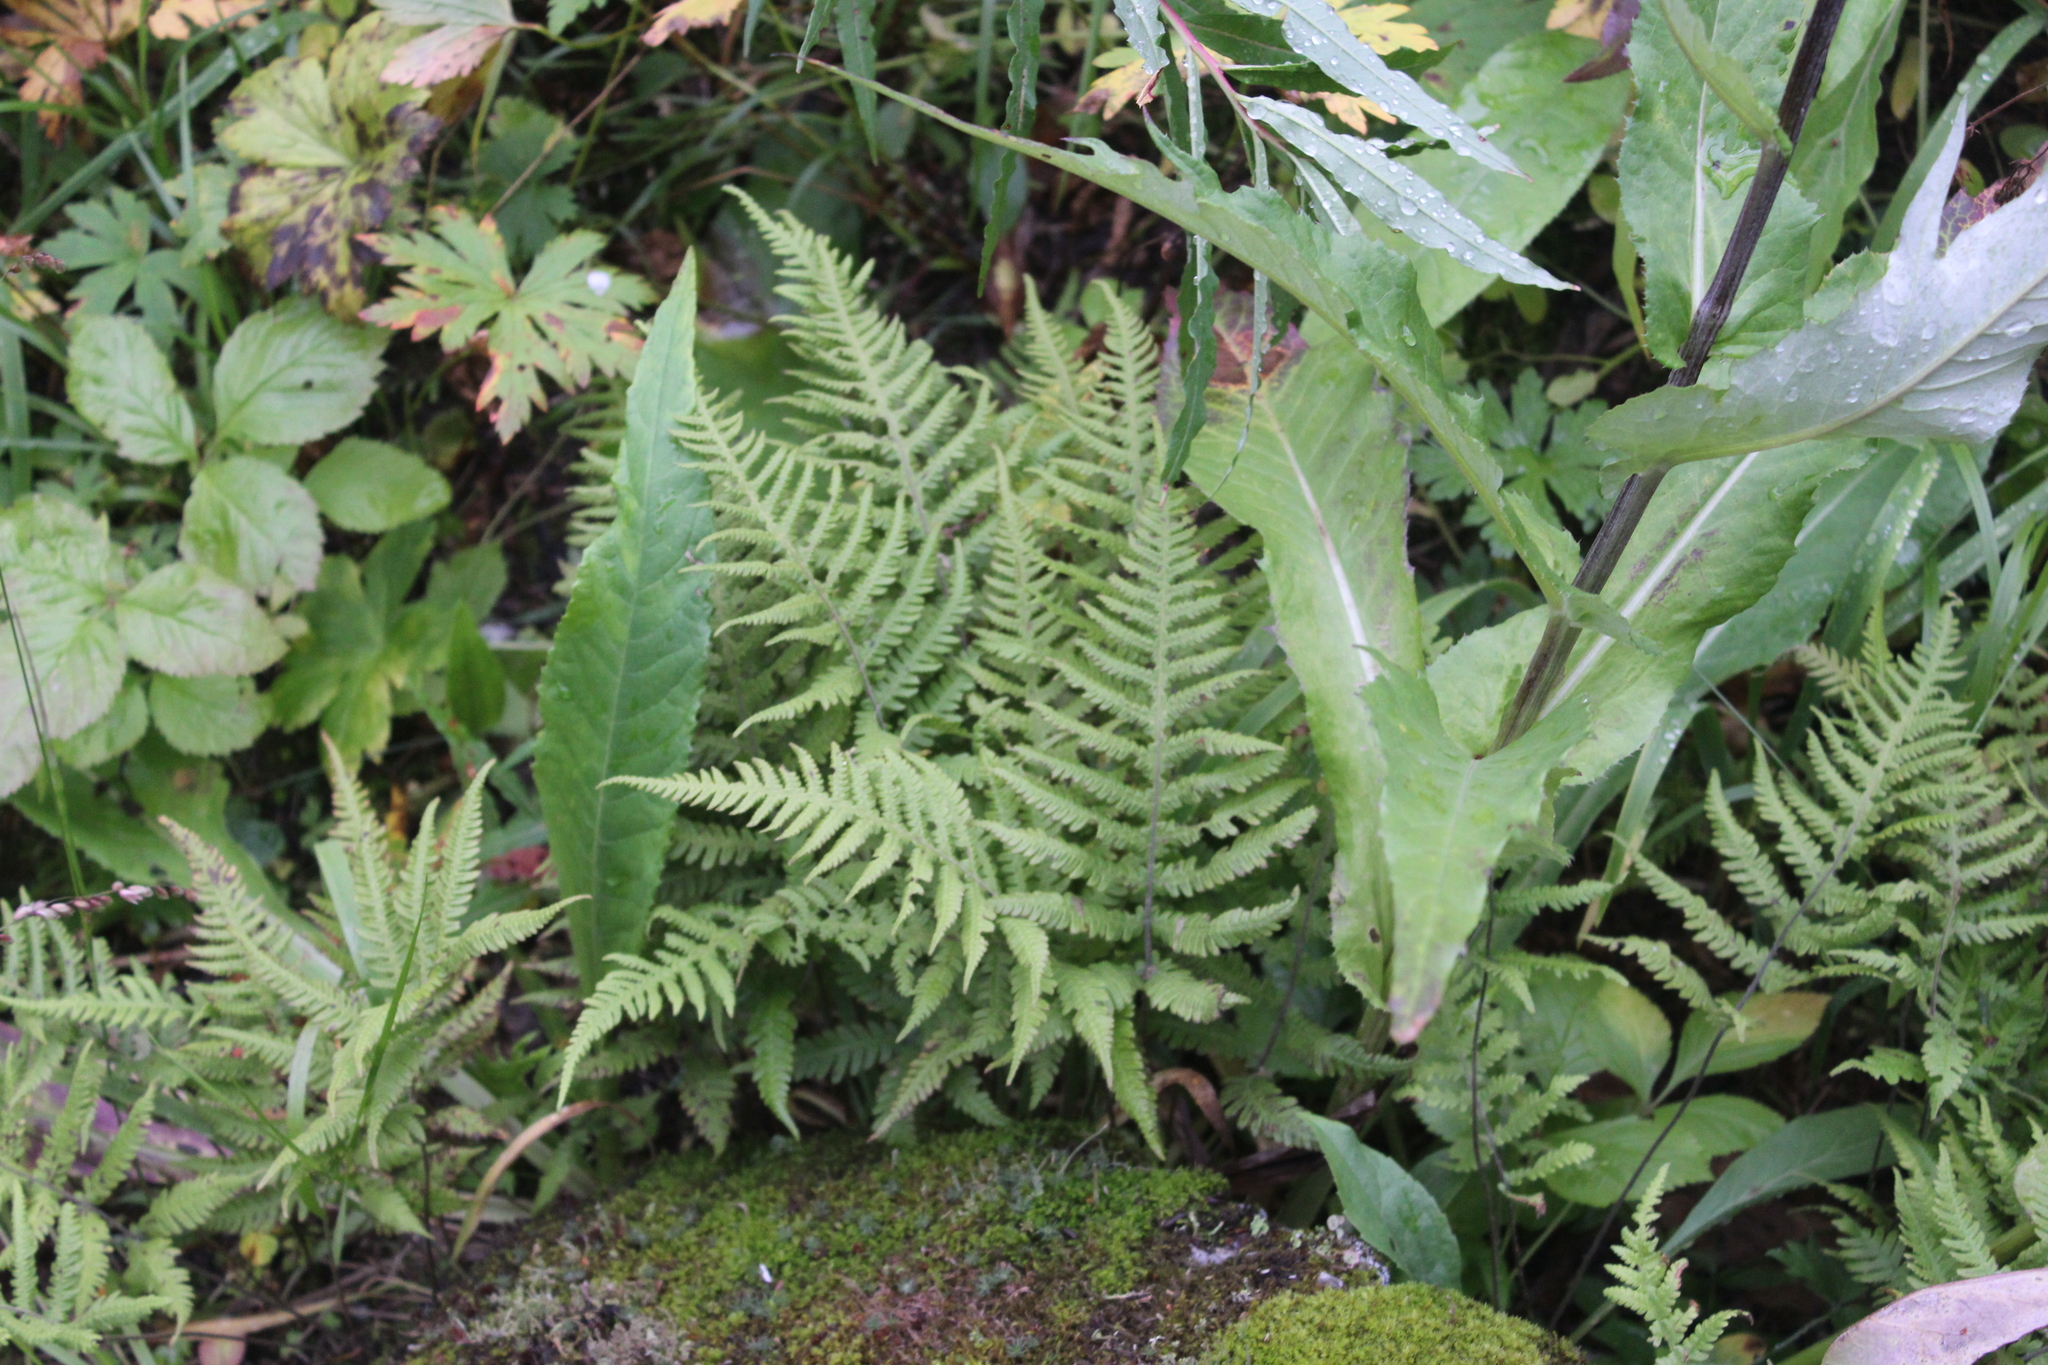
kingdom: Plantae
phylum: Tracheophyta
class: Polypodiopsida
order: Polypodiales
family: Thelypteridaceae
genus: Phegopteris
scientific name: Phegopteris connectilis
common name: Beech fern
